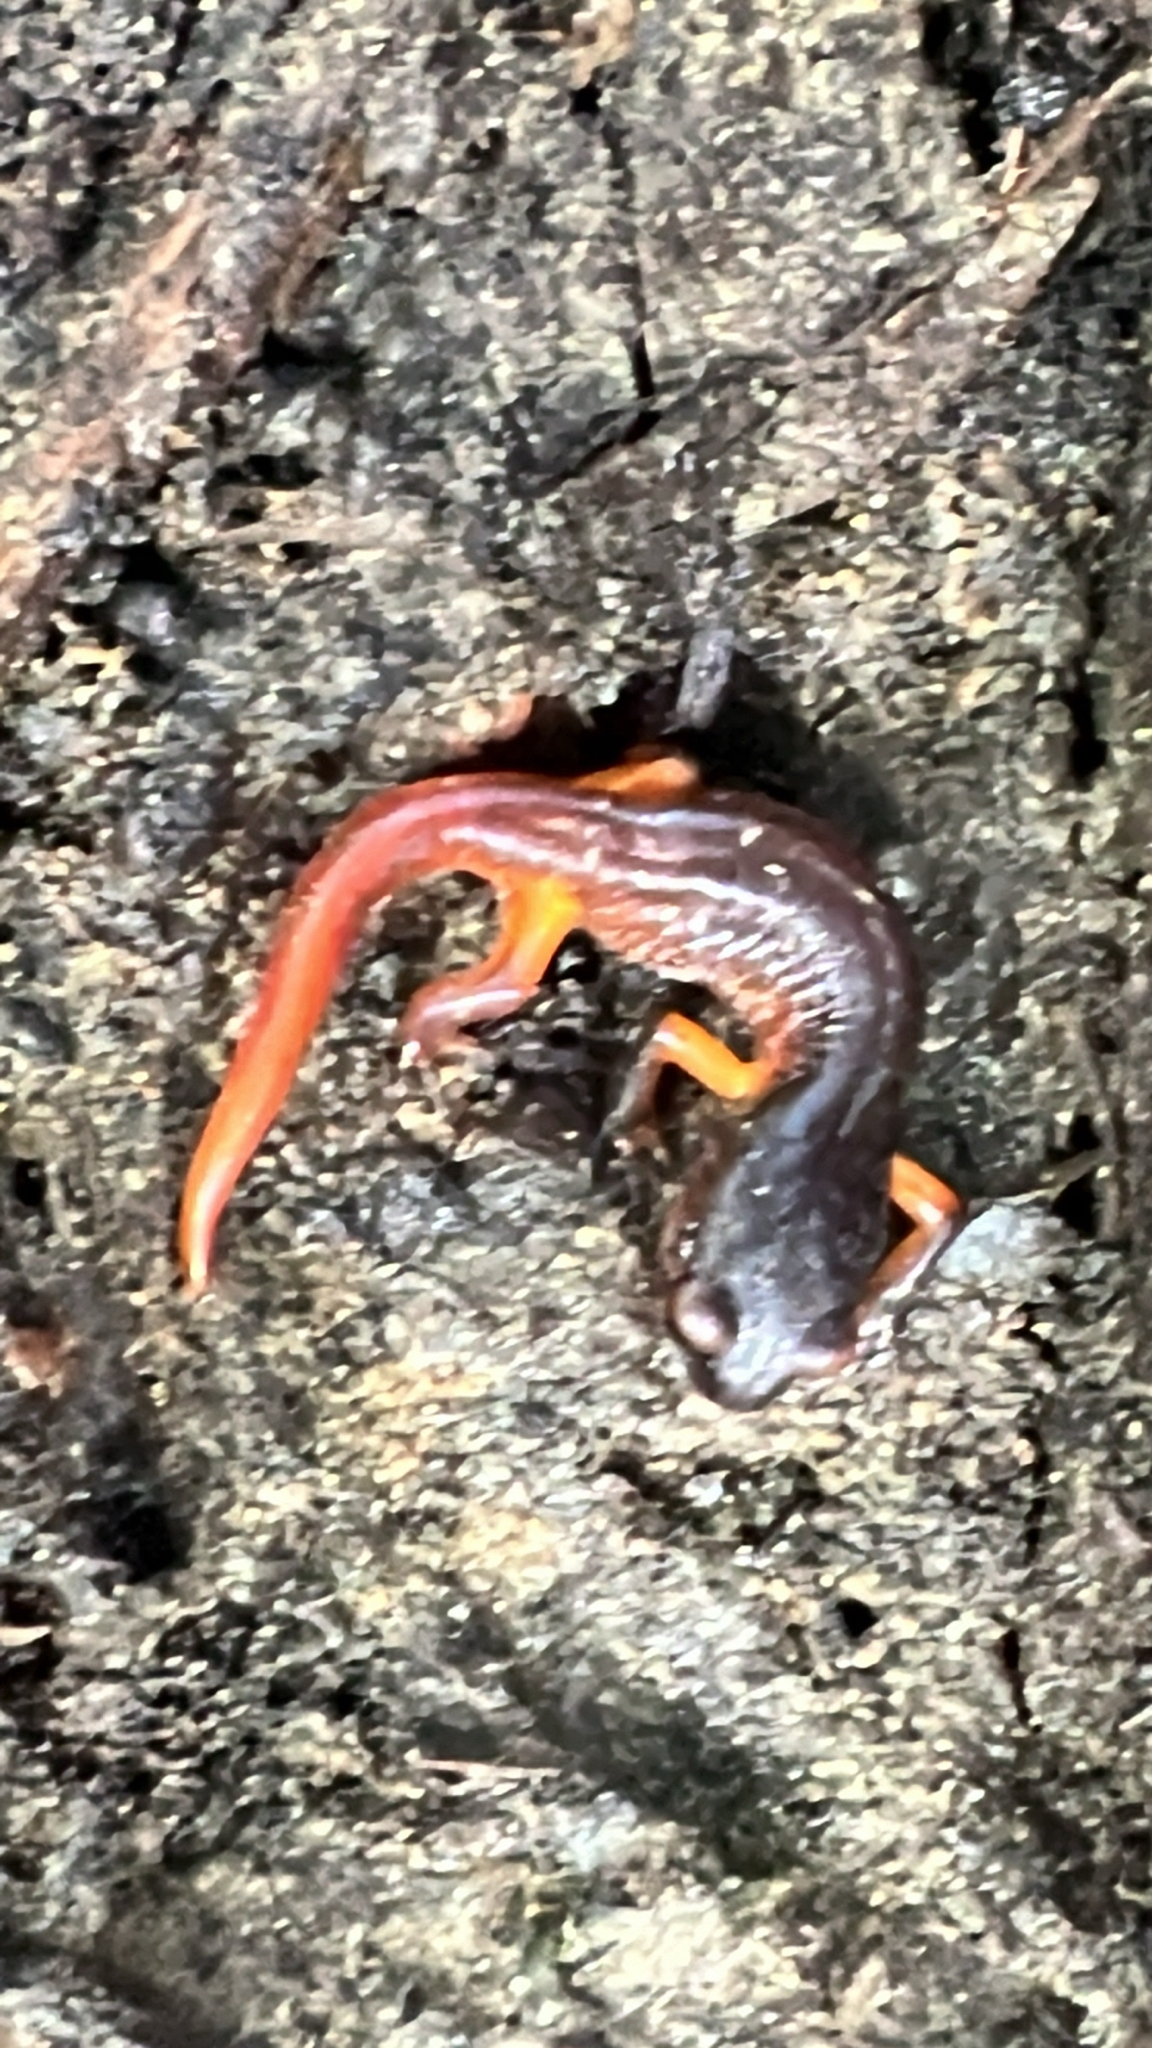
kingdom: Animalia
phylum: Chordata
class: Amphibia
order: Caudata
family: Plethodontidae
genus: Ensatina
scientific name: Ensatina eschscholtzii
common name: Ensatina
